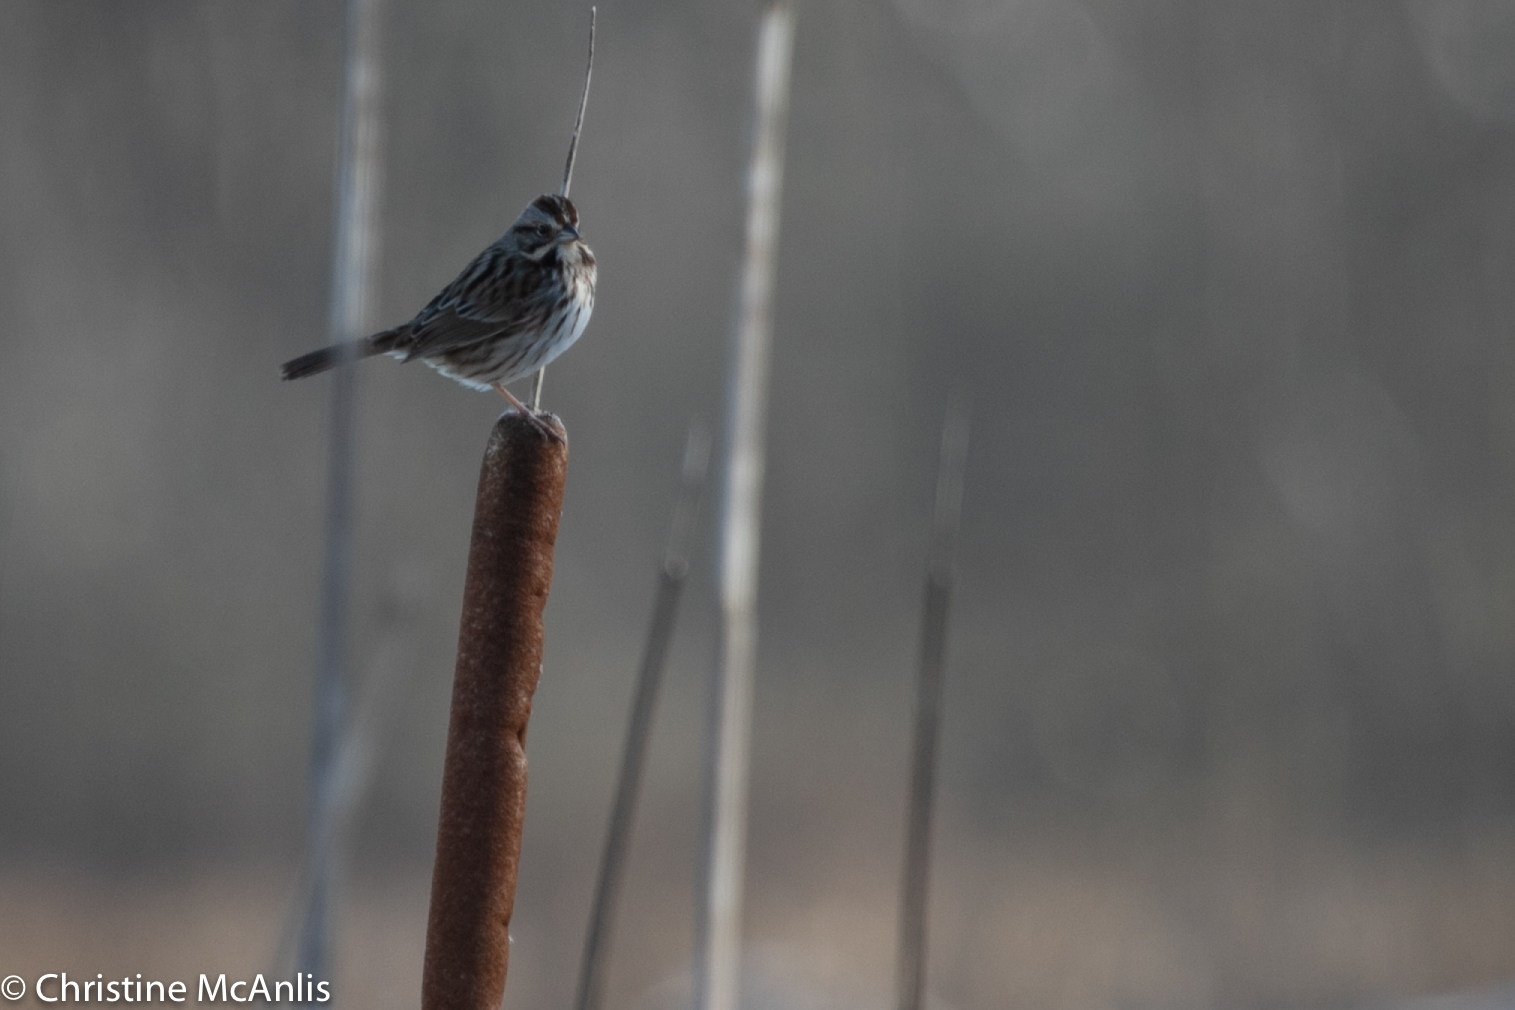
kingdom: Animalia
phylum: Chordata
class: Aves
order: Passeriformes
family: Passerellidae
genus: Melospiza
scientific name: Melospiza melodia
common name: Song sparrow
